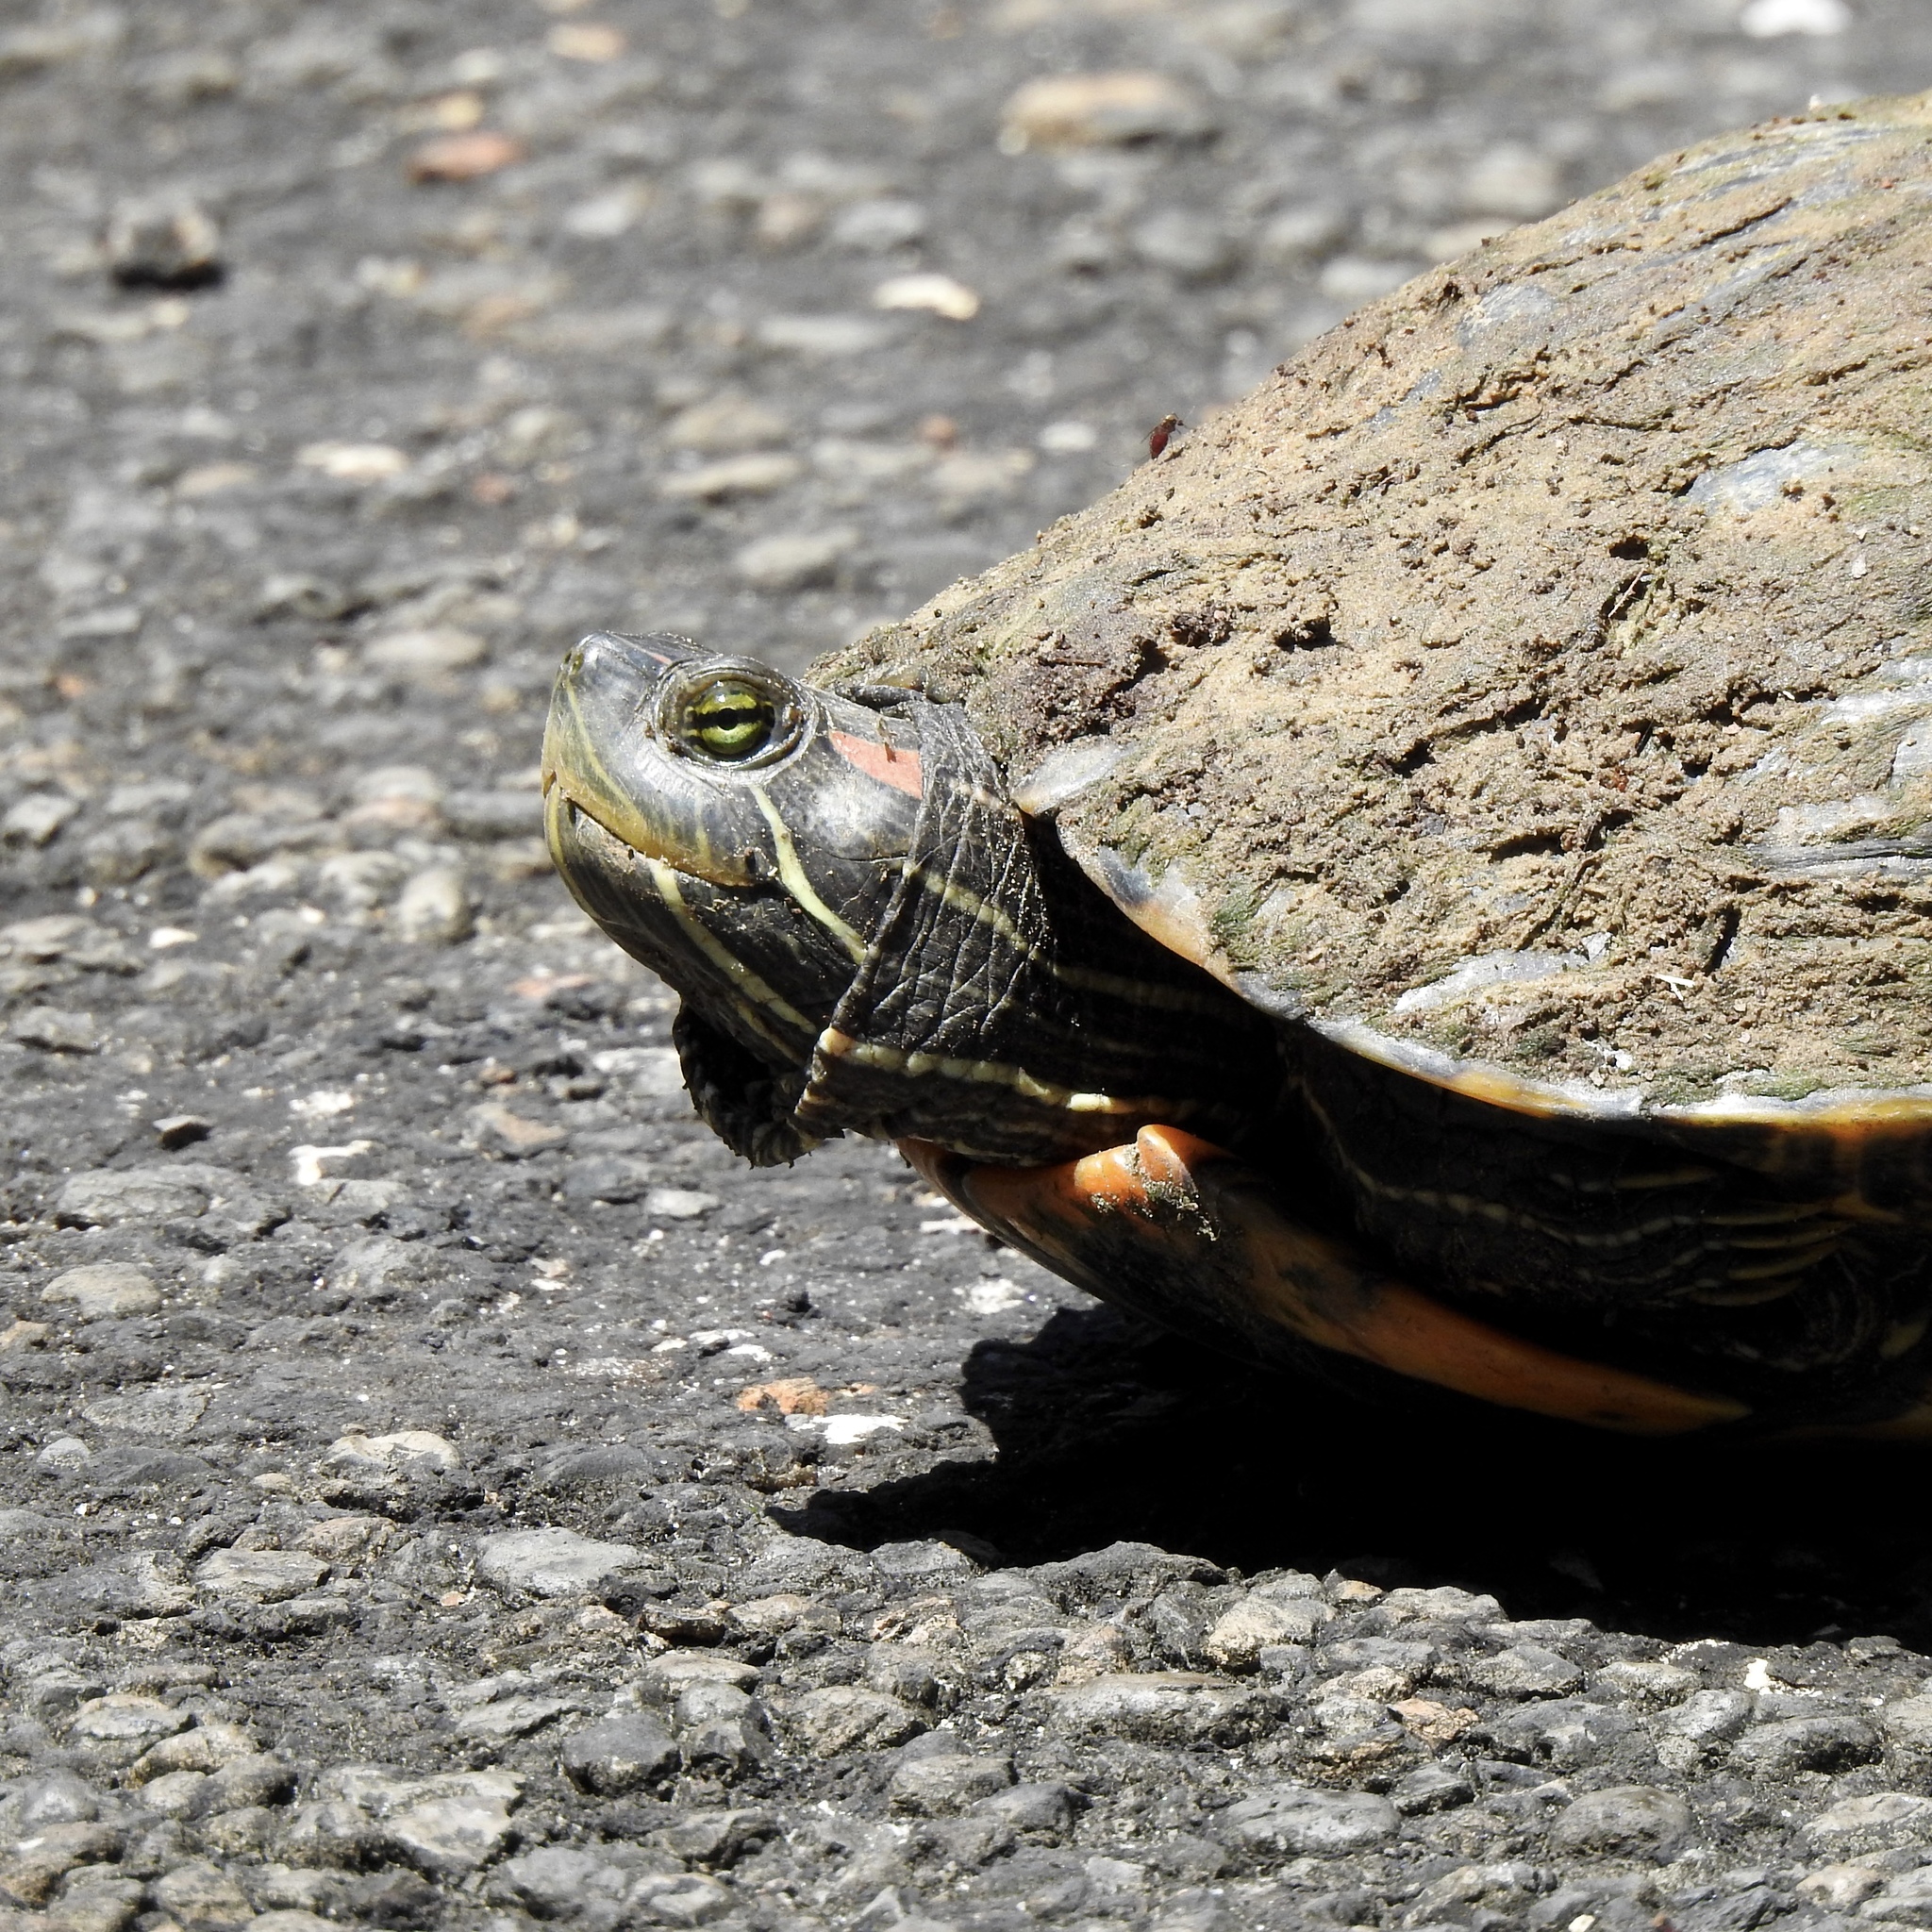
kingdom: Animalia
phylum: Chordata
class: Testudines
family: Emydidae
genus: Trachemys
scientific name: Trachemys scripta
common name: Slider
